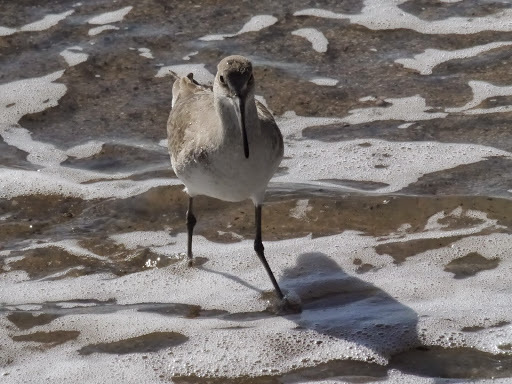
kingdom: Animalia
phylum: Chordata
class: Aves
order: Charadriiformes
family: Scolopacidae
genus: Tringa
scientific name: Tringa semipalmata
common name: Willet
